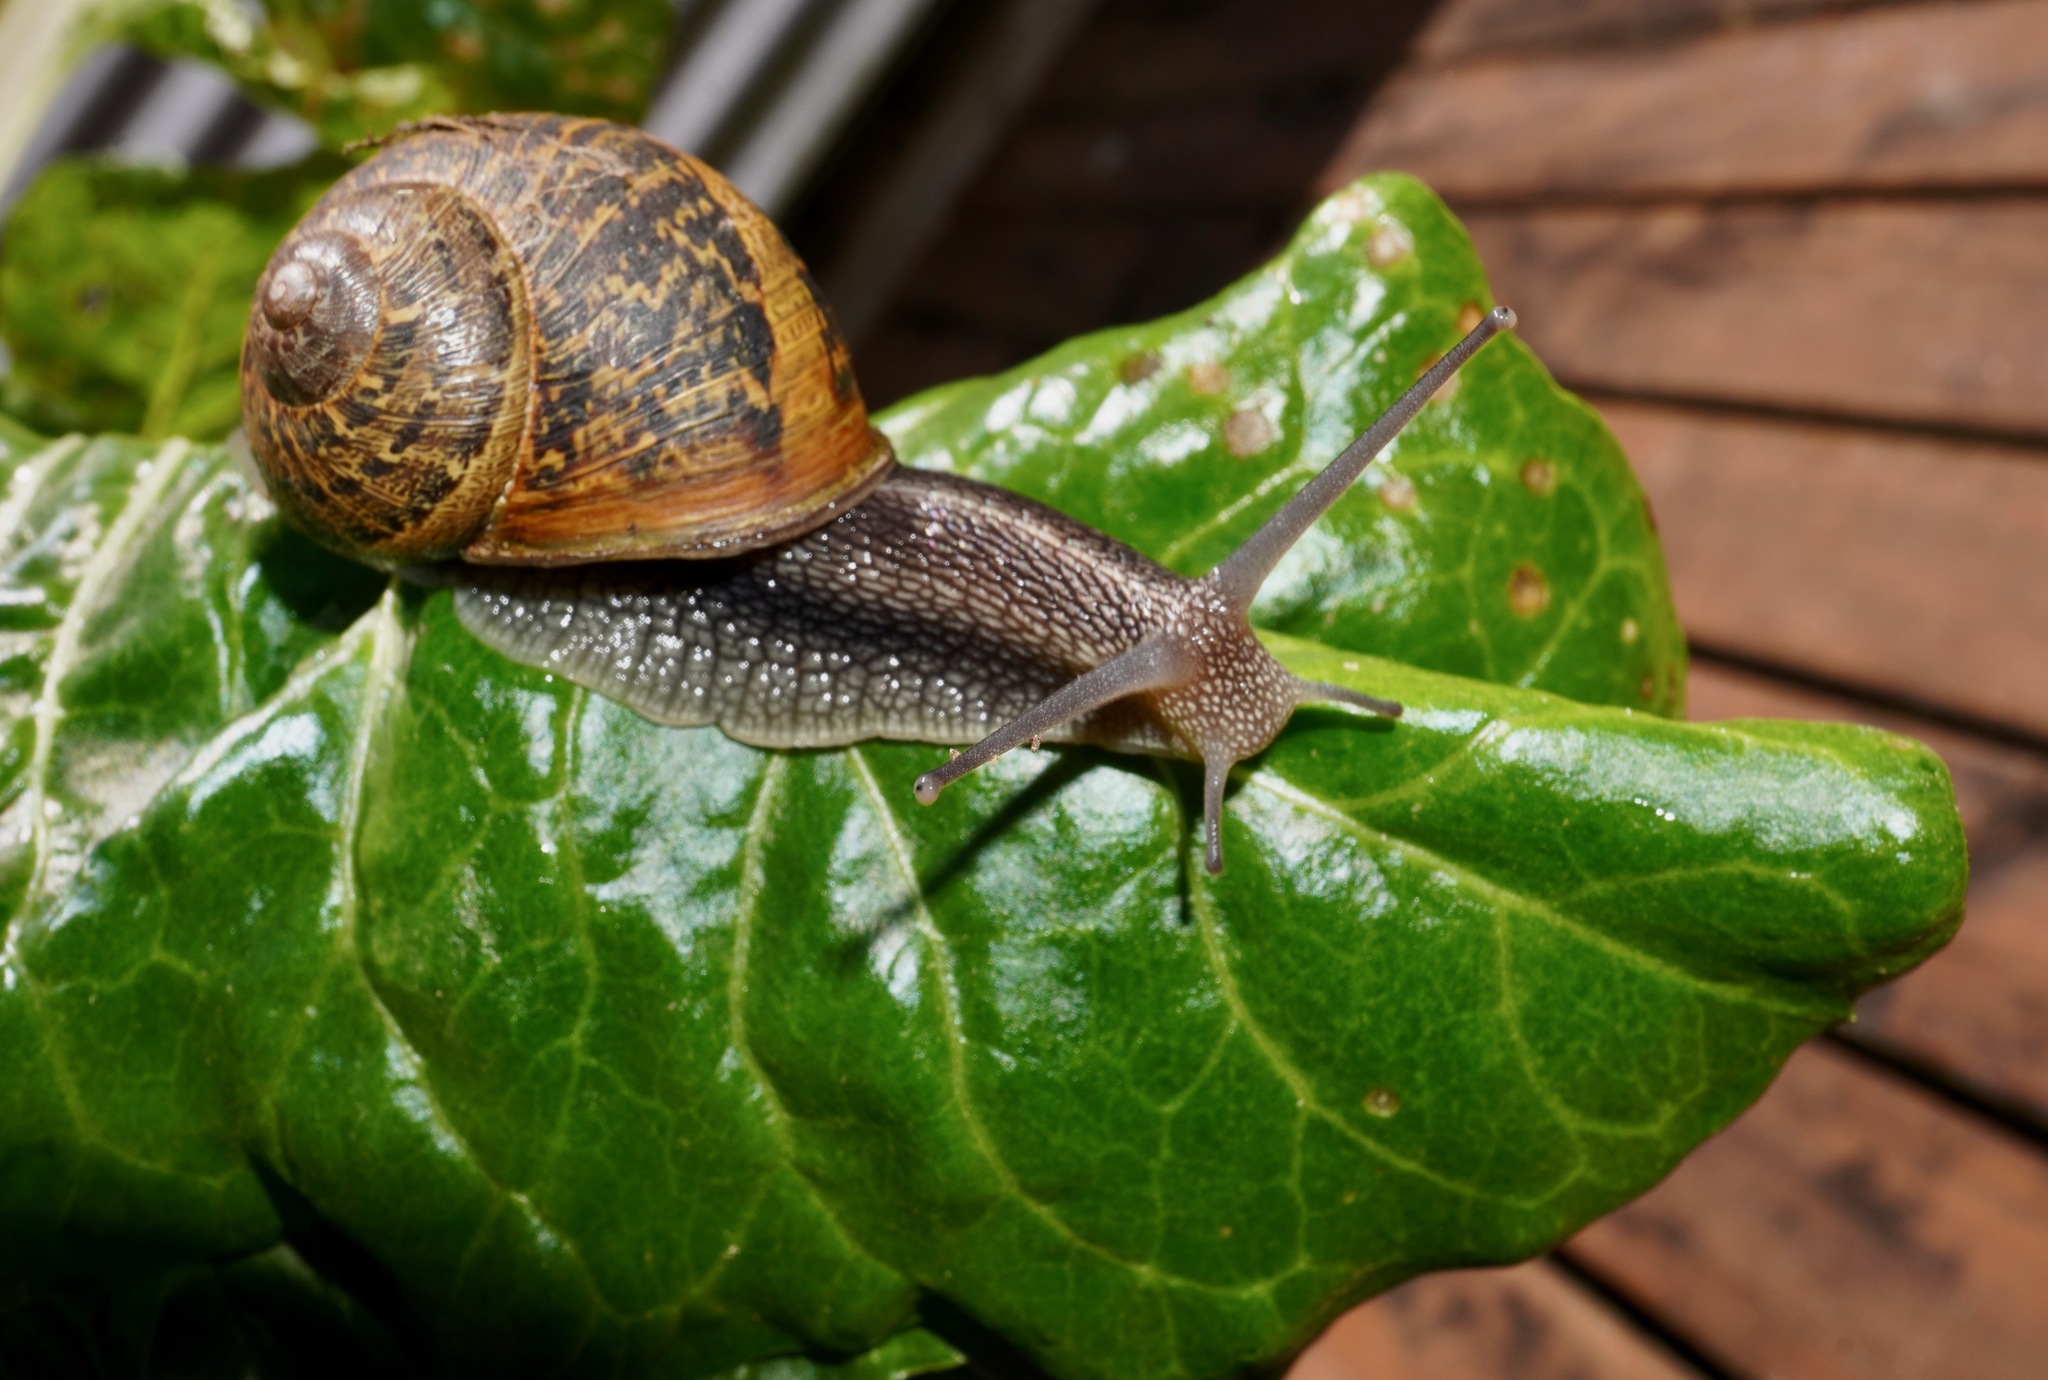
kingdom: Animalia
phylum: Mollusca
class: Gastropoda
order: Stylommatophora
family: Helicidae
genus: Cornu
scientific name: Cornu aspersum
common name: Brown garden snail
